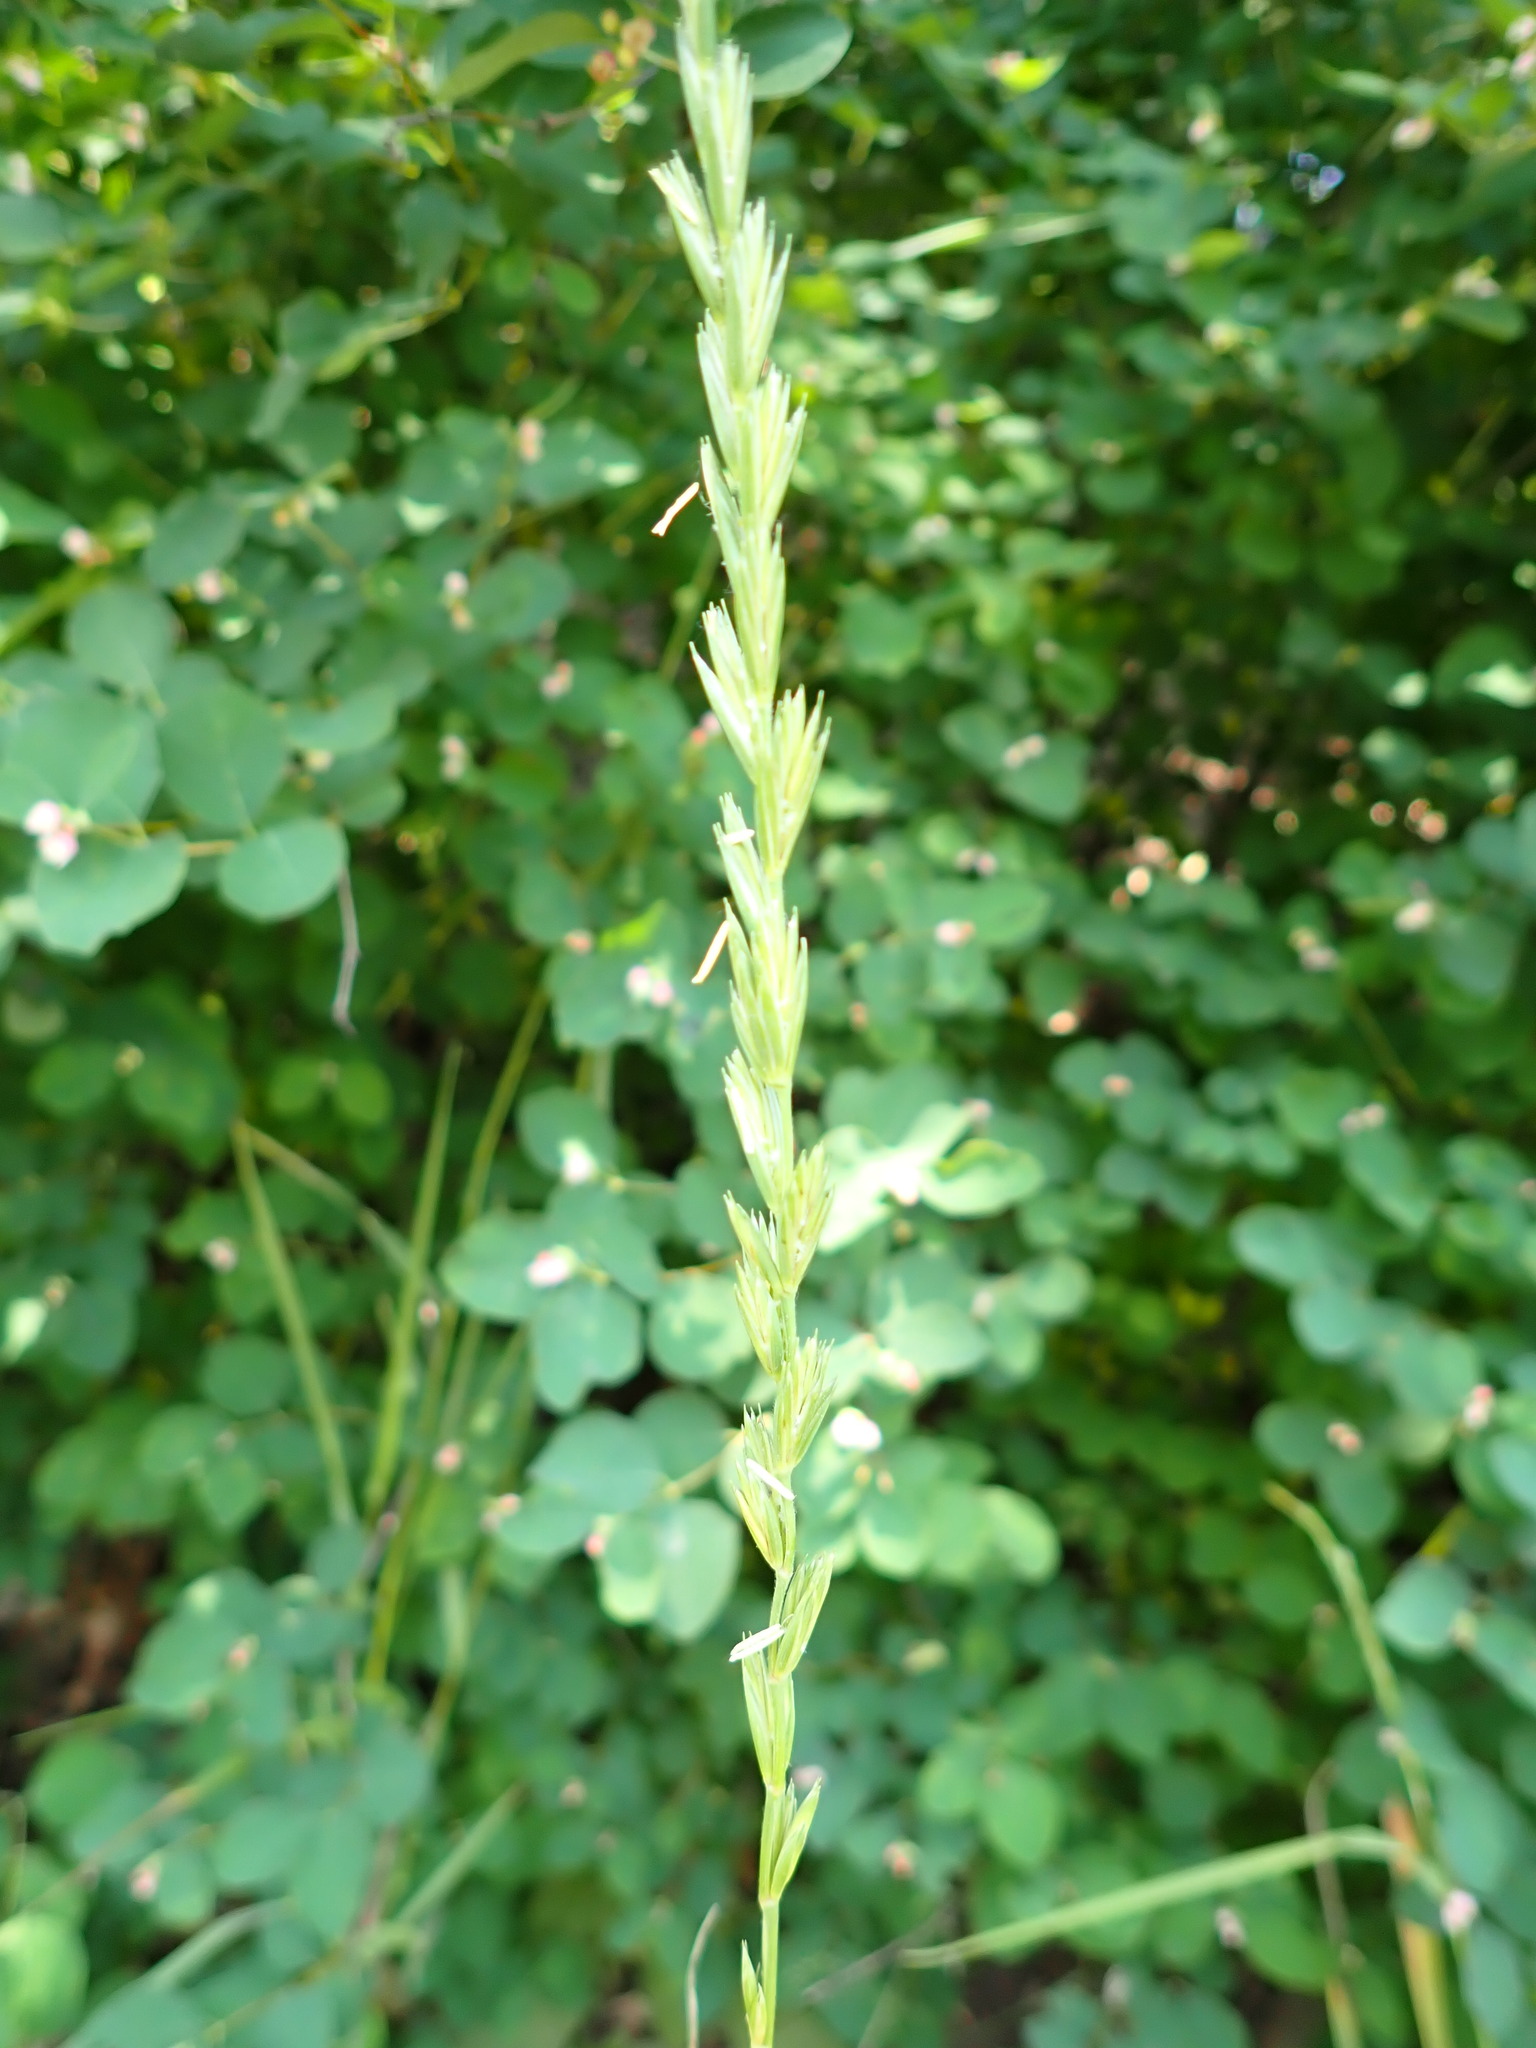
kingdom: Plantae
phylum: Tracheophyta
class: Liliopsida
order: Poales
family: Poaceae
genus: Lolium
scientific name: Lolium perenne
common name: Perennial ryegrass
